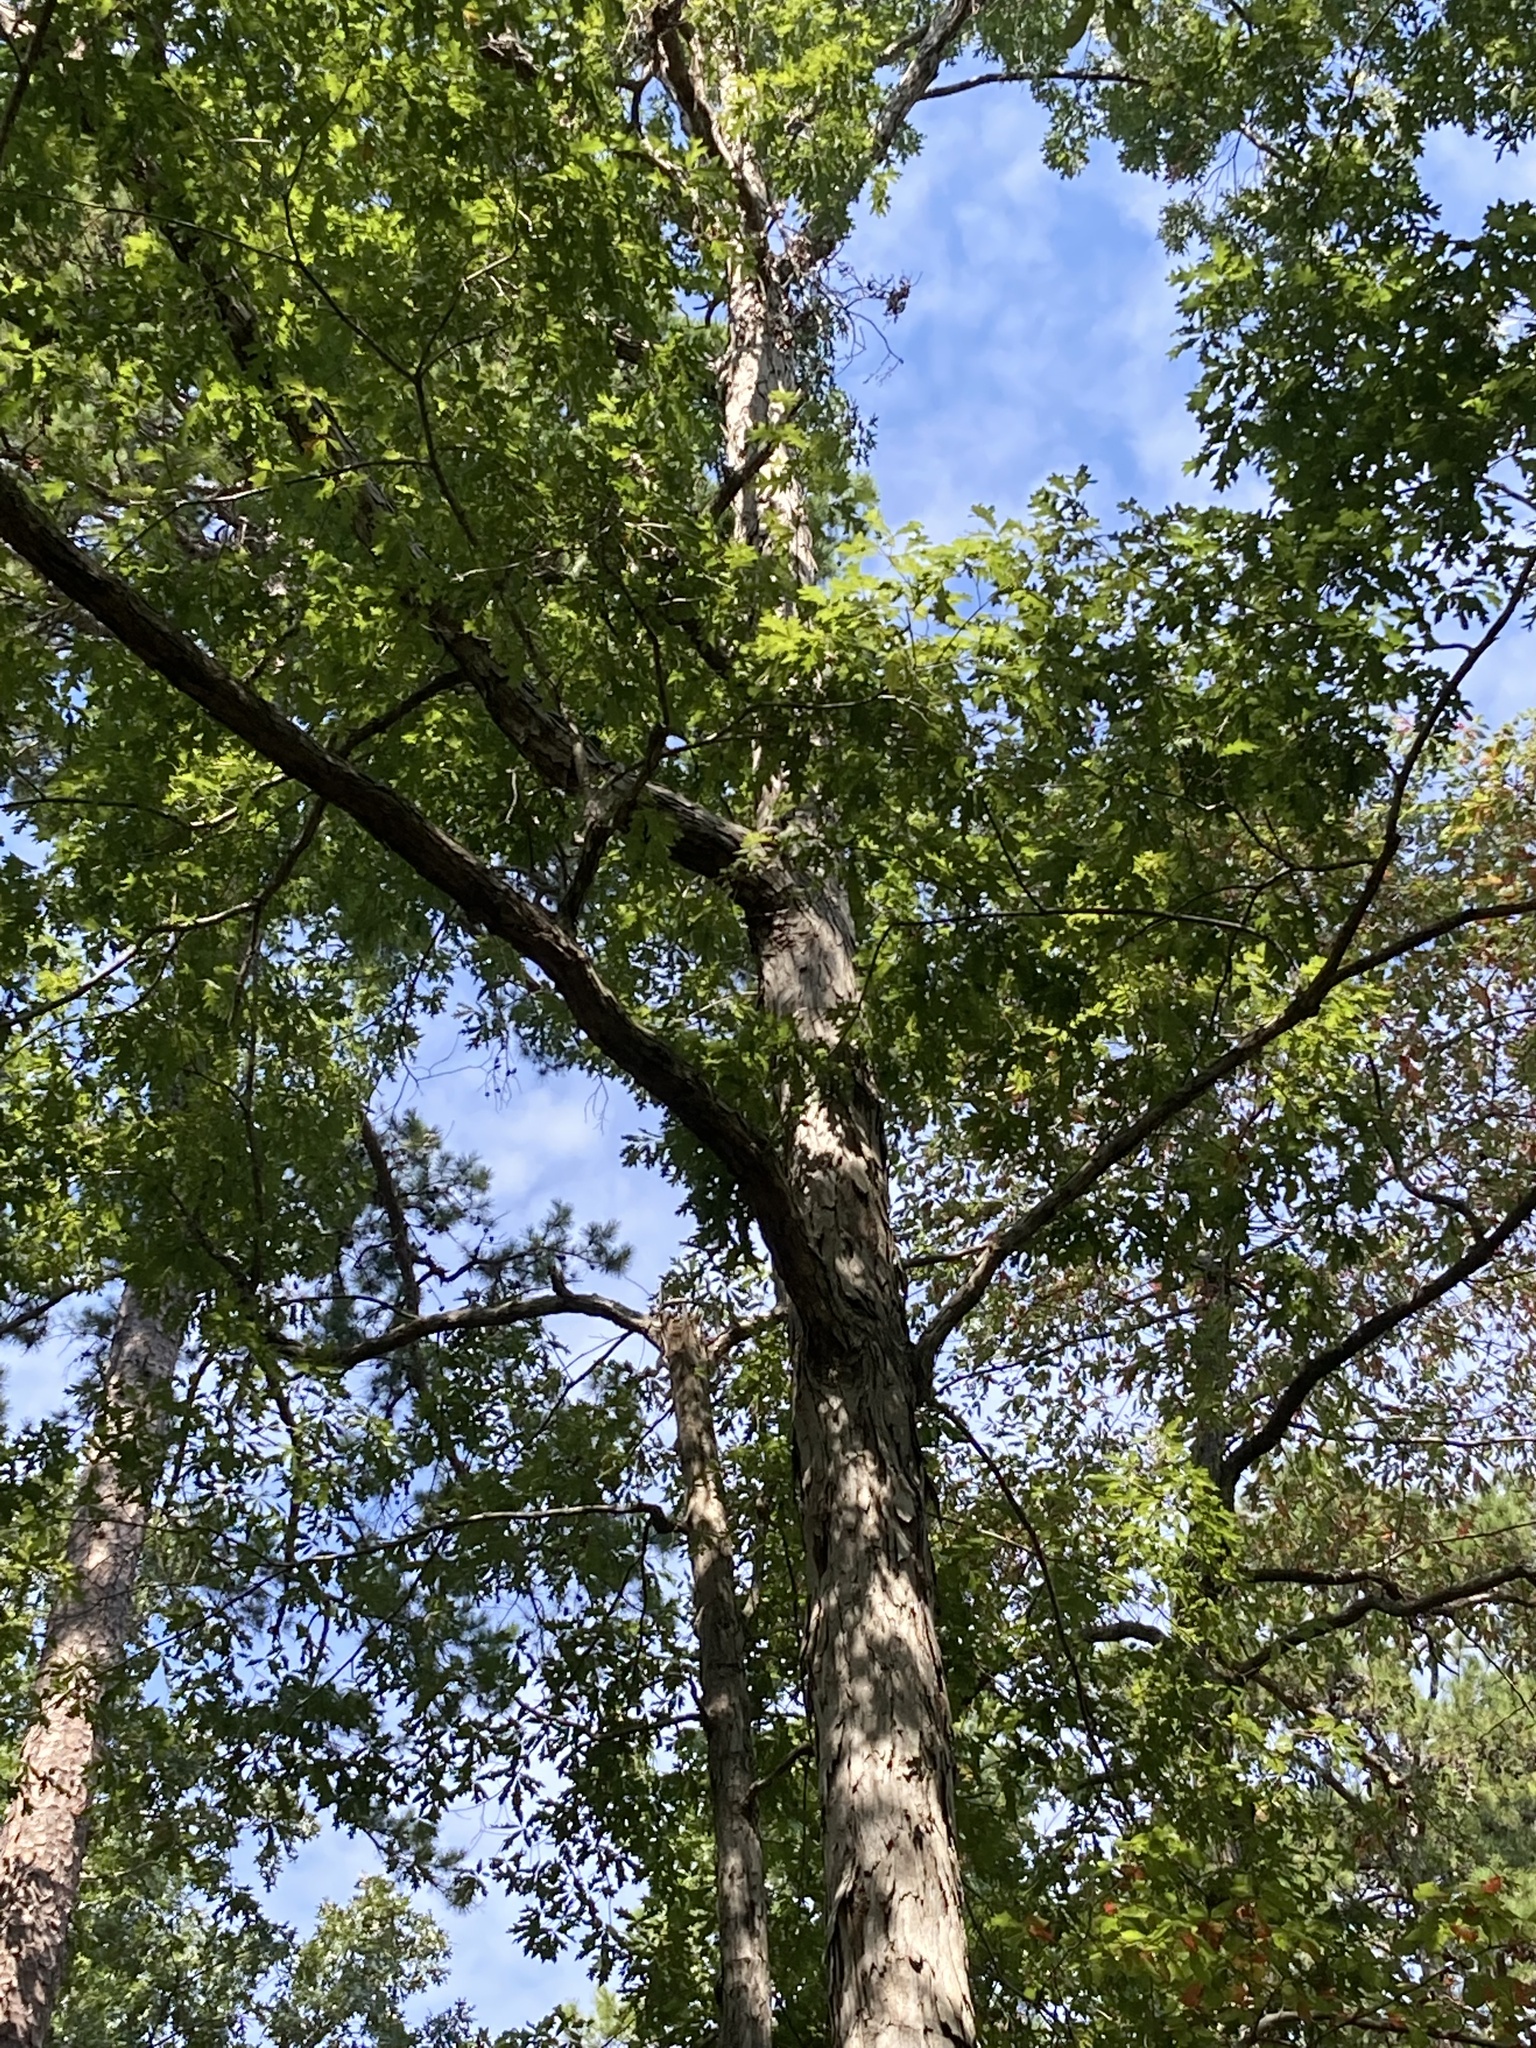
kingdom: Plantae
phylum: Tracheophyta
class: Magnoliopsida
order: Fagales
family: Fagaceae
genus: Quercus
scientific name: Quercus alba
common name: White oak
